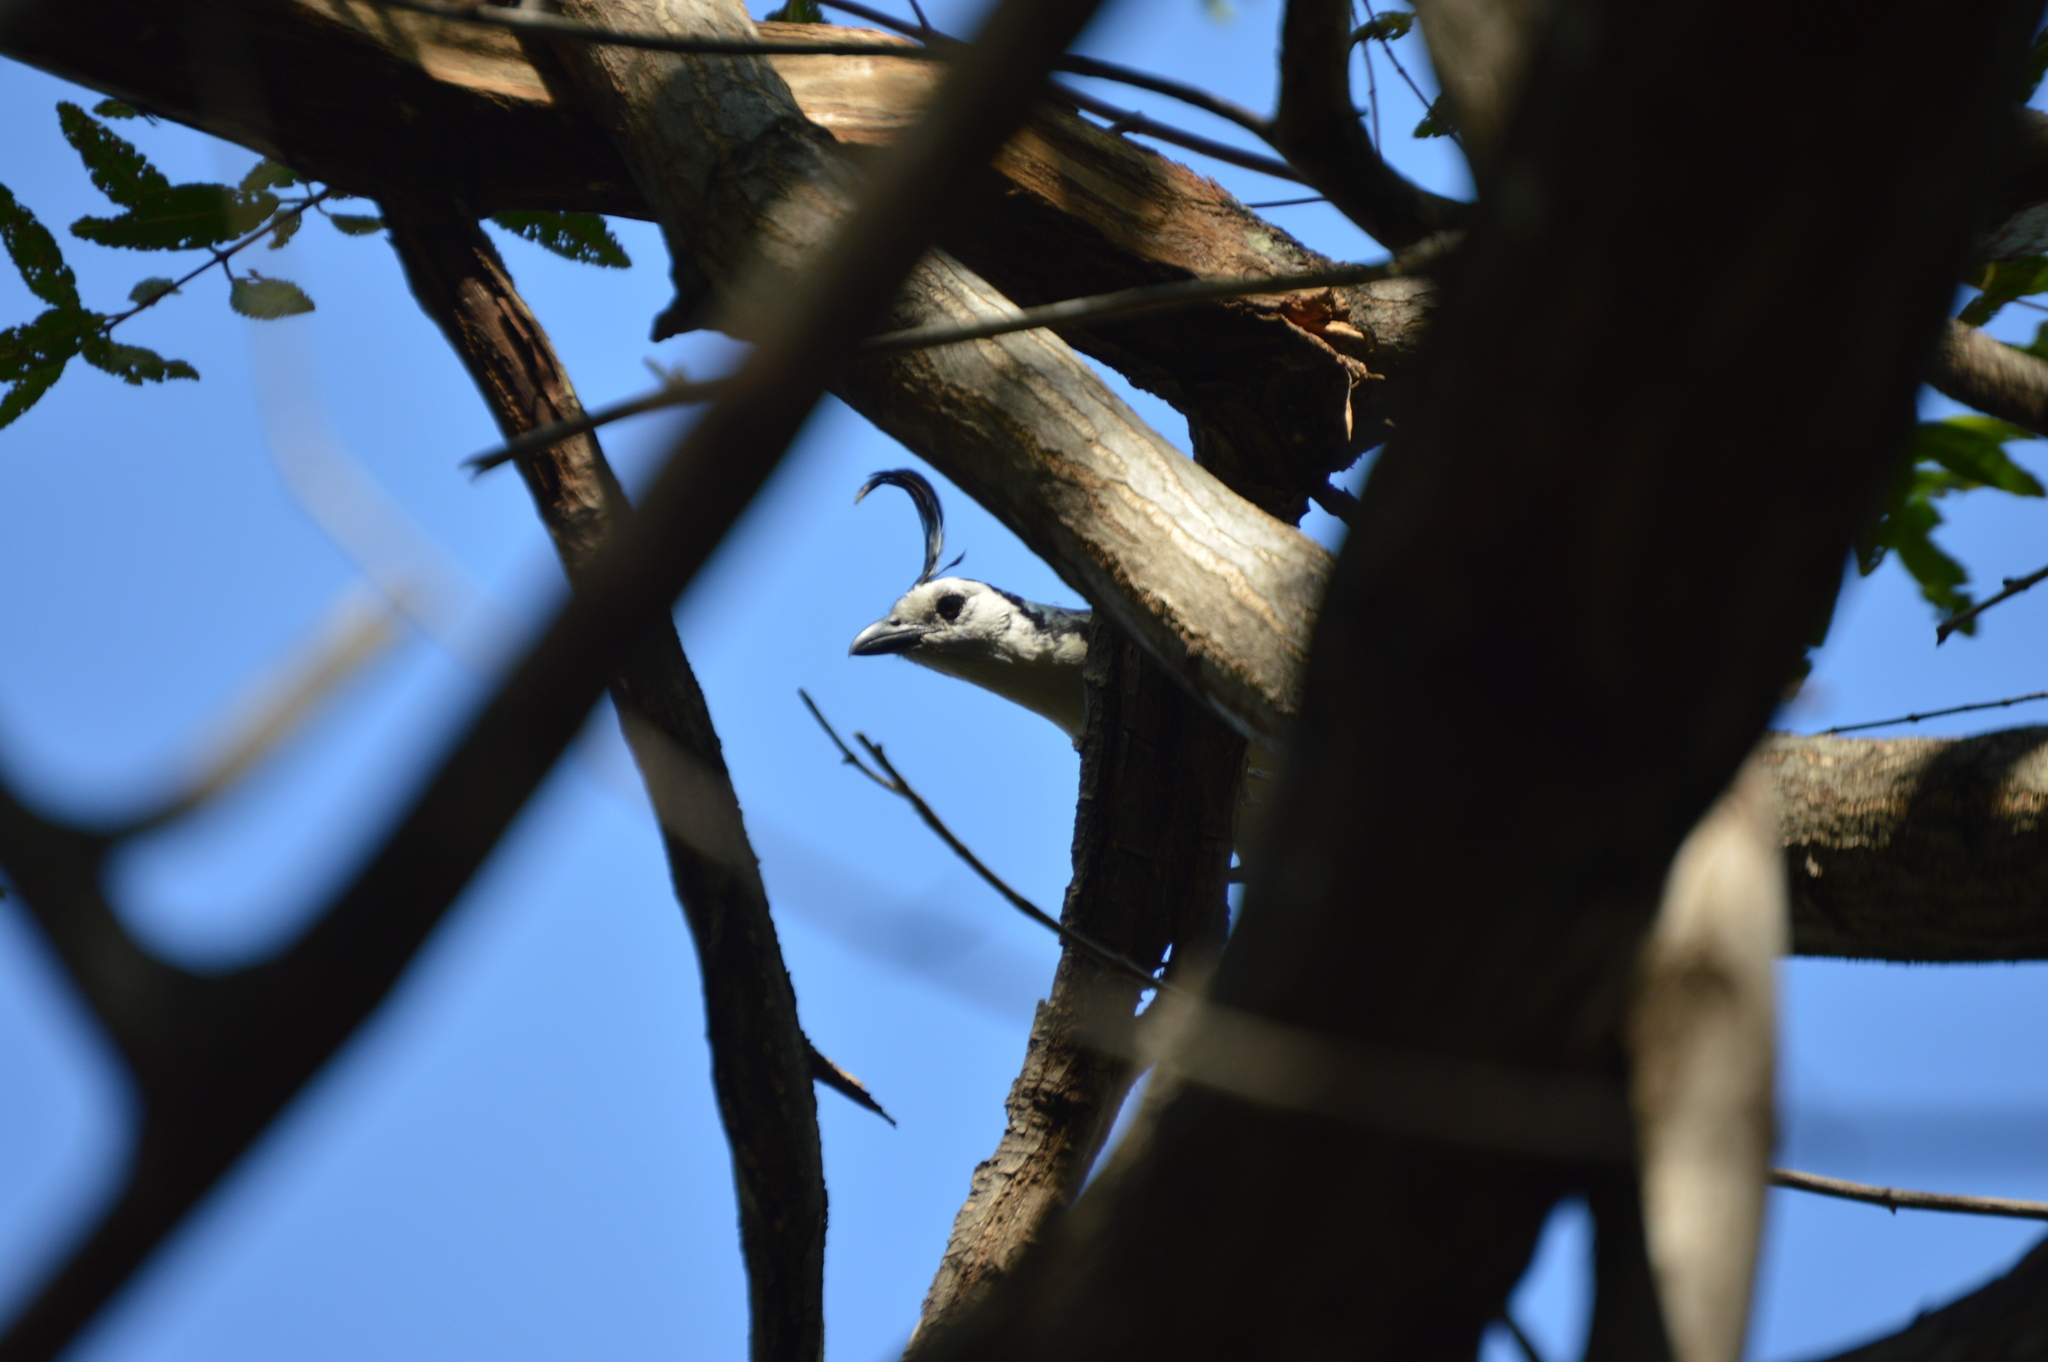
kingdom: Animalia
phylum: Chordata
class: Aves
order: Passeriformes
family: Corvidae
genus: Calocitta
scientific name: Calocitta formosa
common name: White-throated magpie-jay
